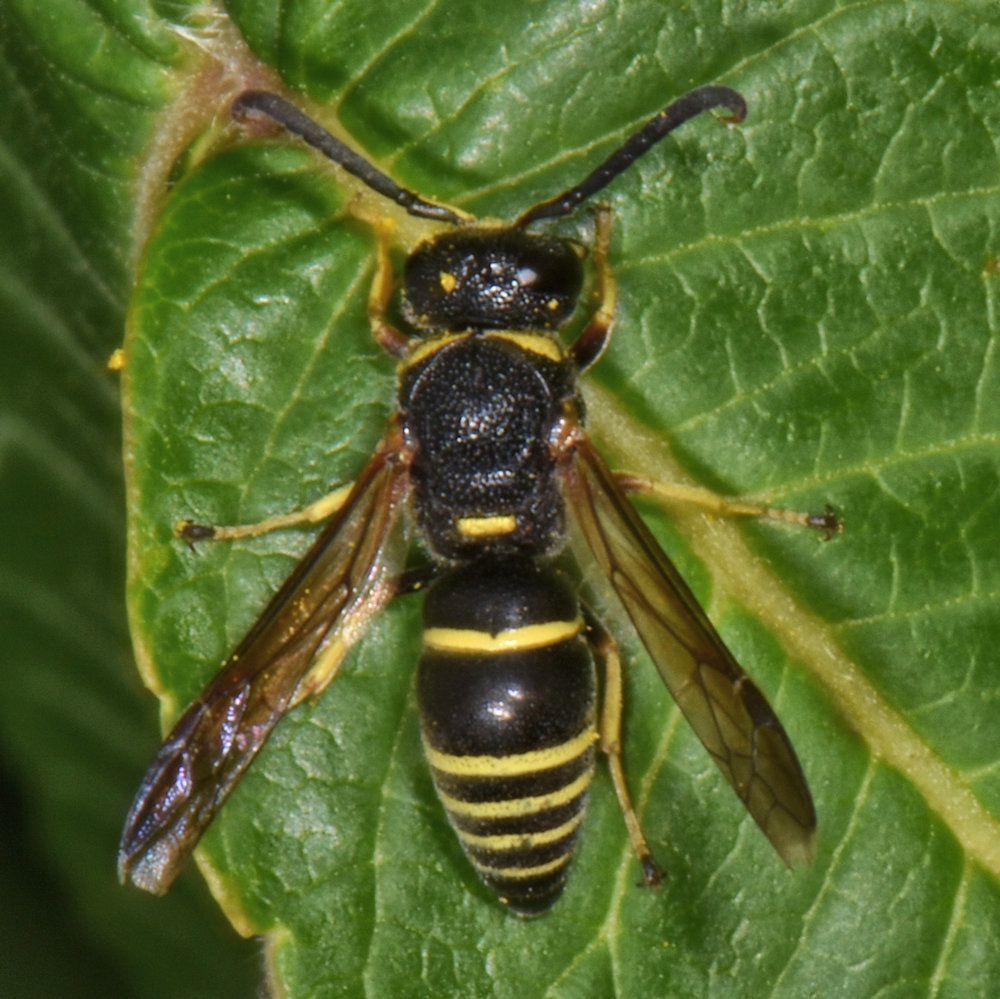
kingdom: Animalia
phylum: Arthropoda
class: Insecta
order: Hymenoptera
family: Eumenidae
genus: Euodynerus
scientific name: Euodynerus foraminatus
